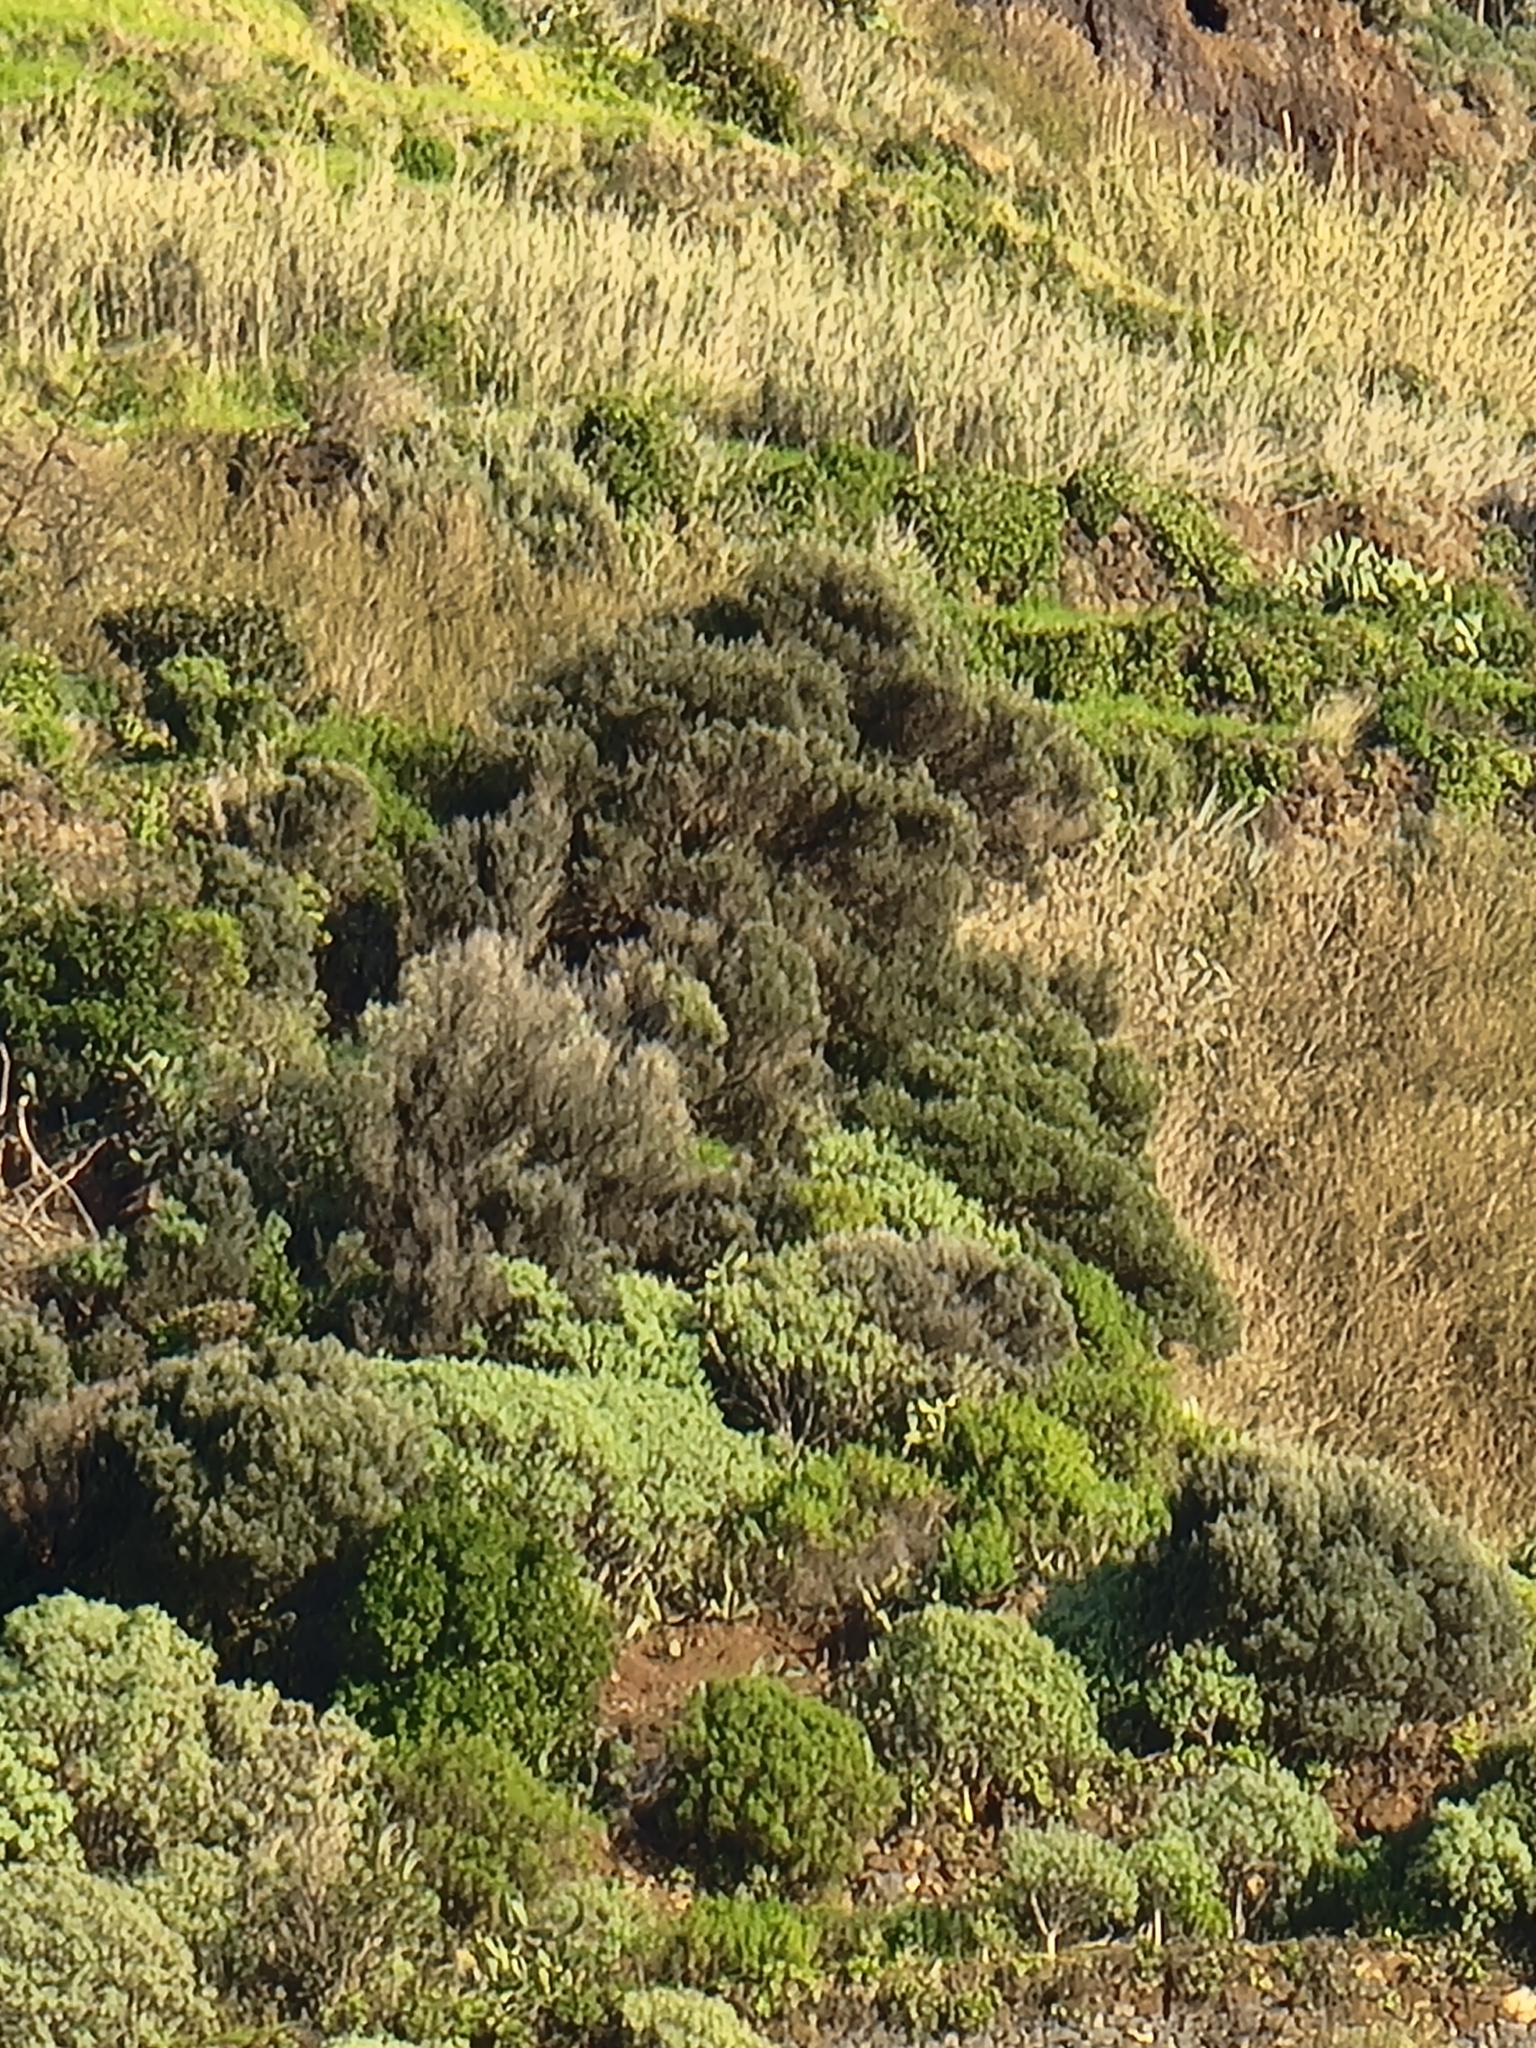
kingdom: Plantae
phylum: Tracheophyta
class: Magnoliopsida
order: Lamiales
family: Oleaceae
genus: Olea
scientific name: Olea europaea
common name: Olive
